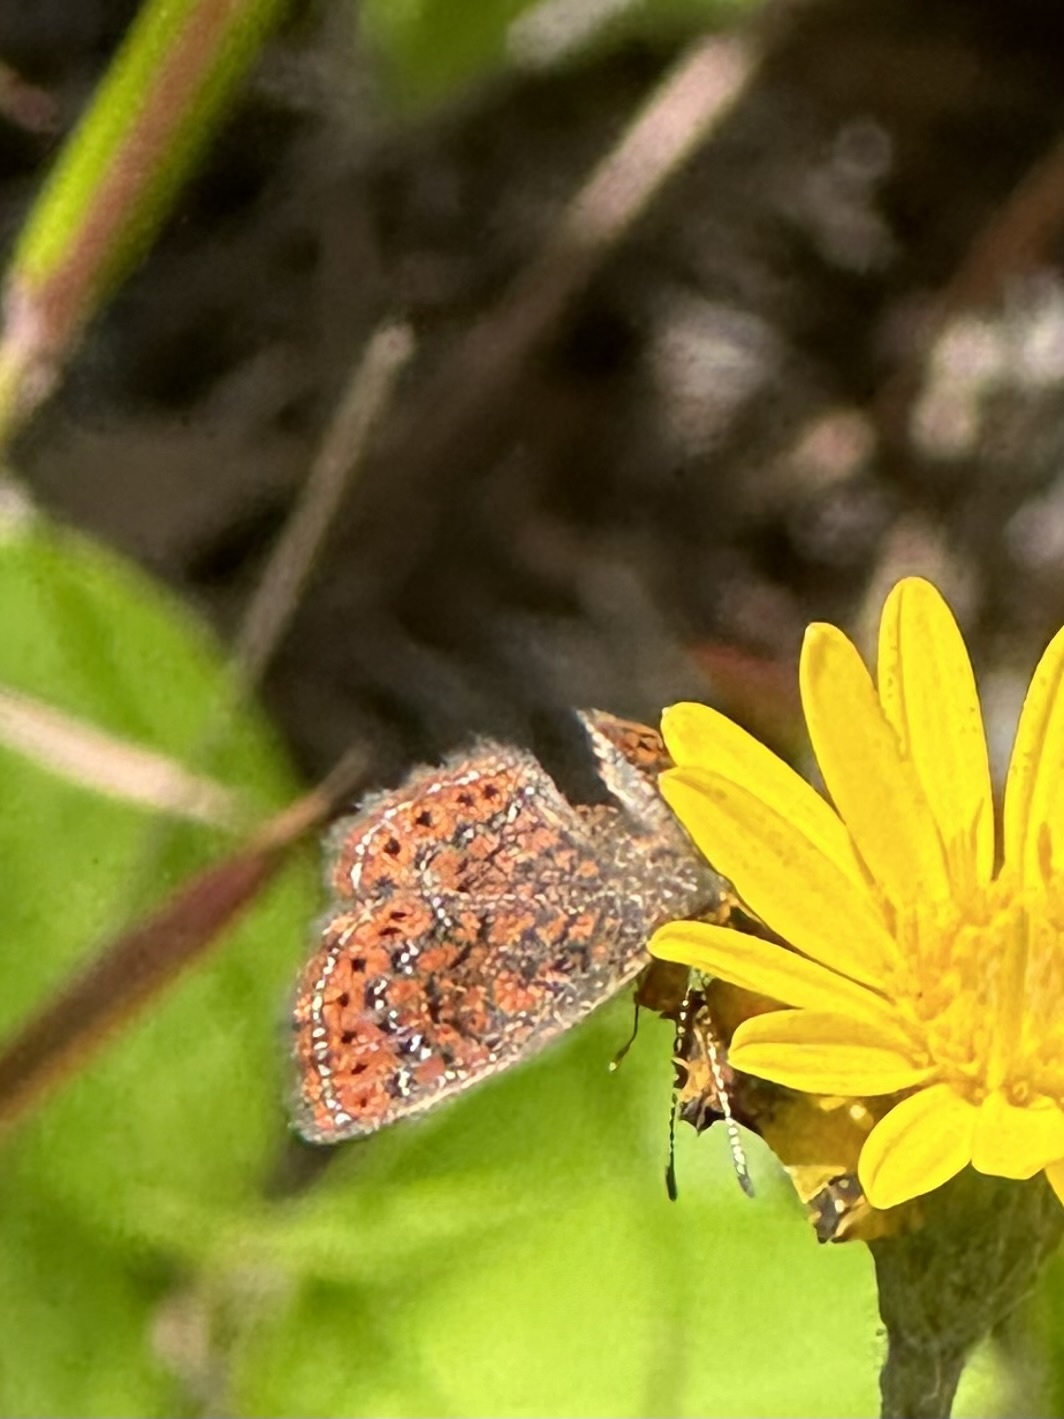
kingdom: Animalia
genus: Calephelis
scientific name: Calephelis virginiensis
